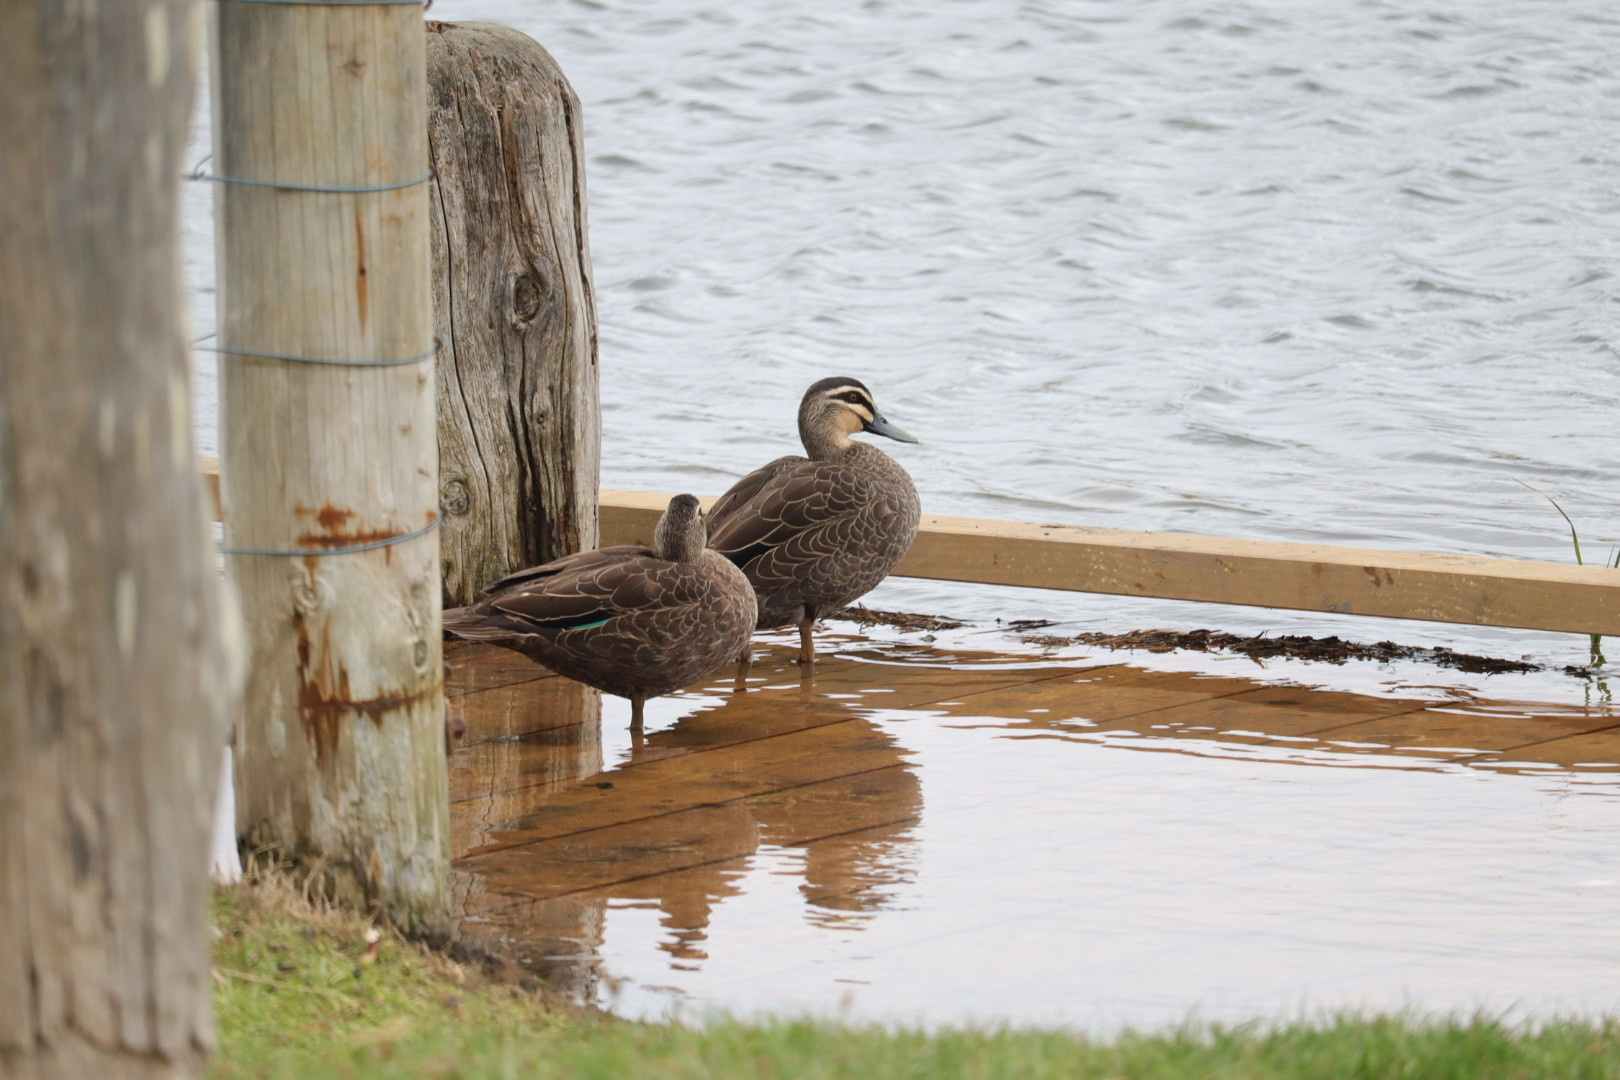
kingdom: Animalia
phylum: Chordata
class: Aves
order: Anseriformes
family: Anatidae
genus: Anas
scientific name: Anas superciliosa
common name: Pacific black duck
